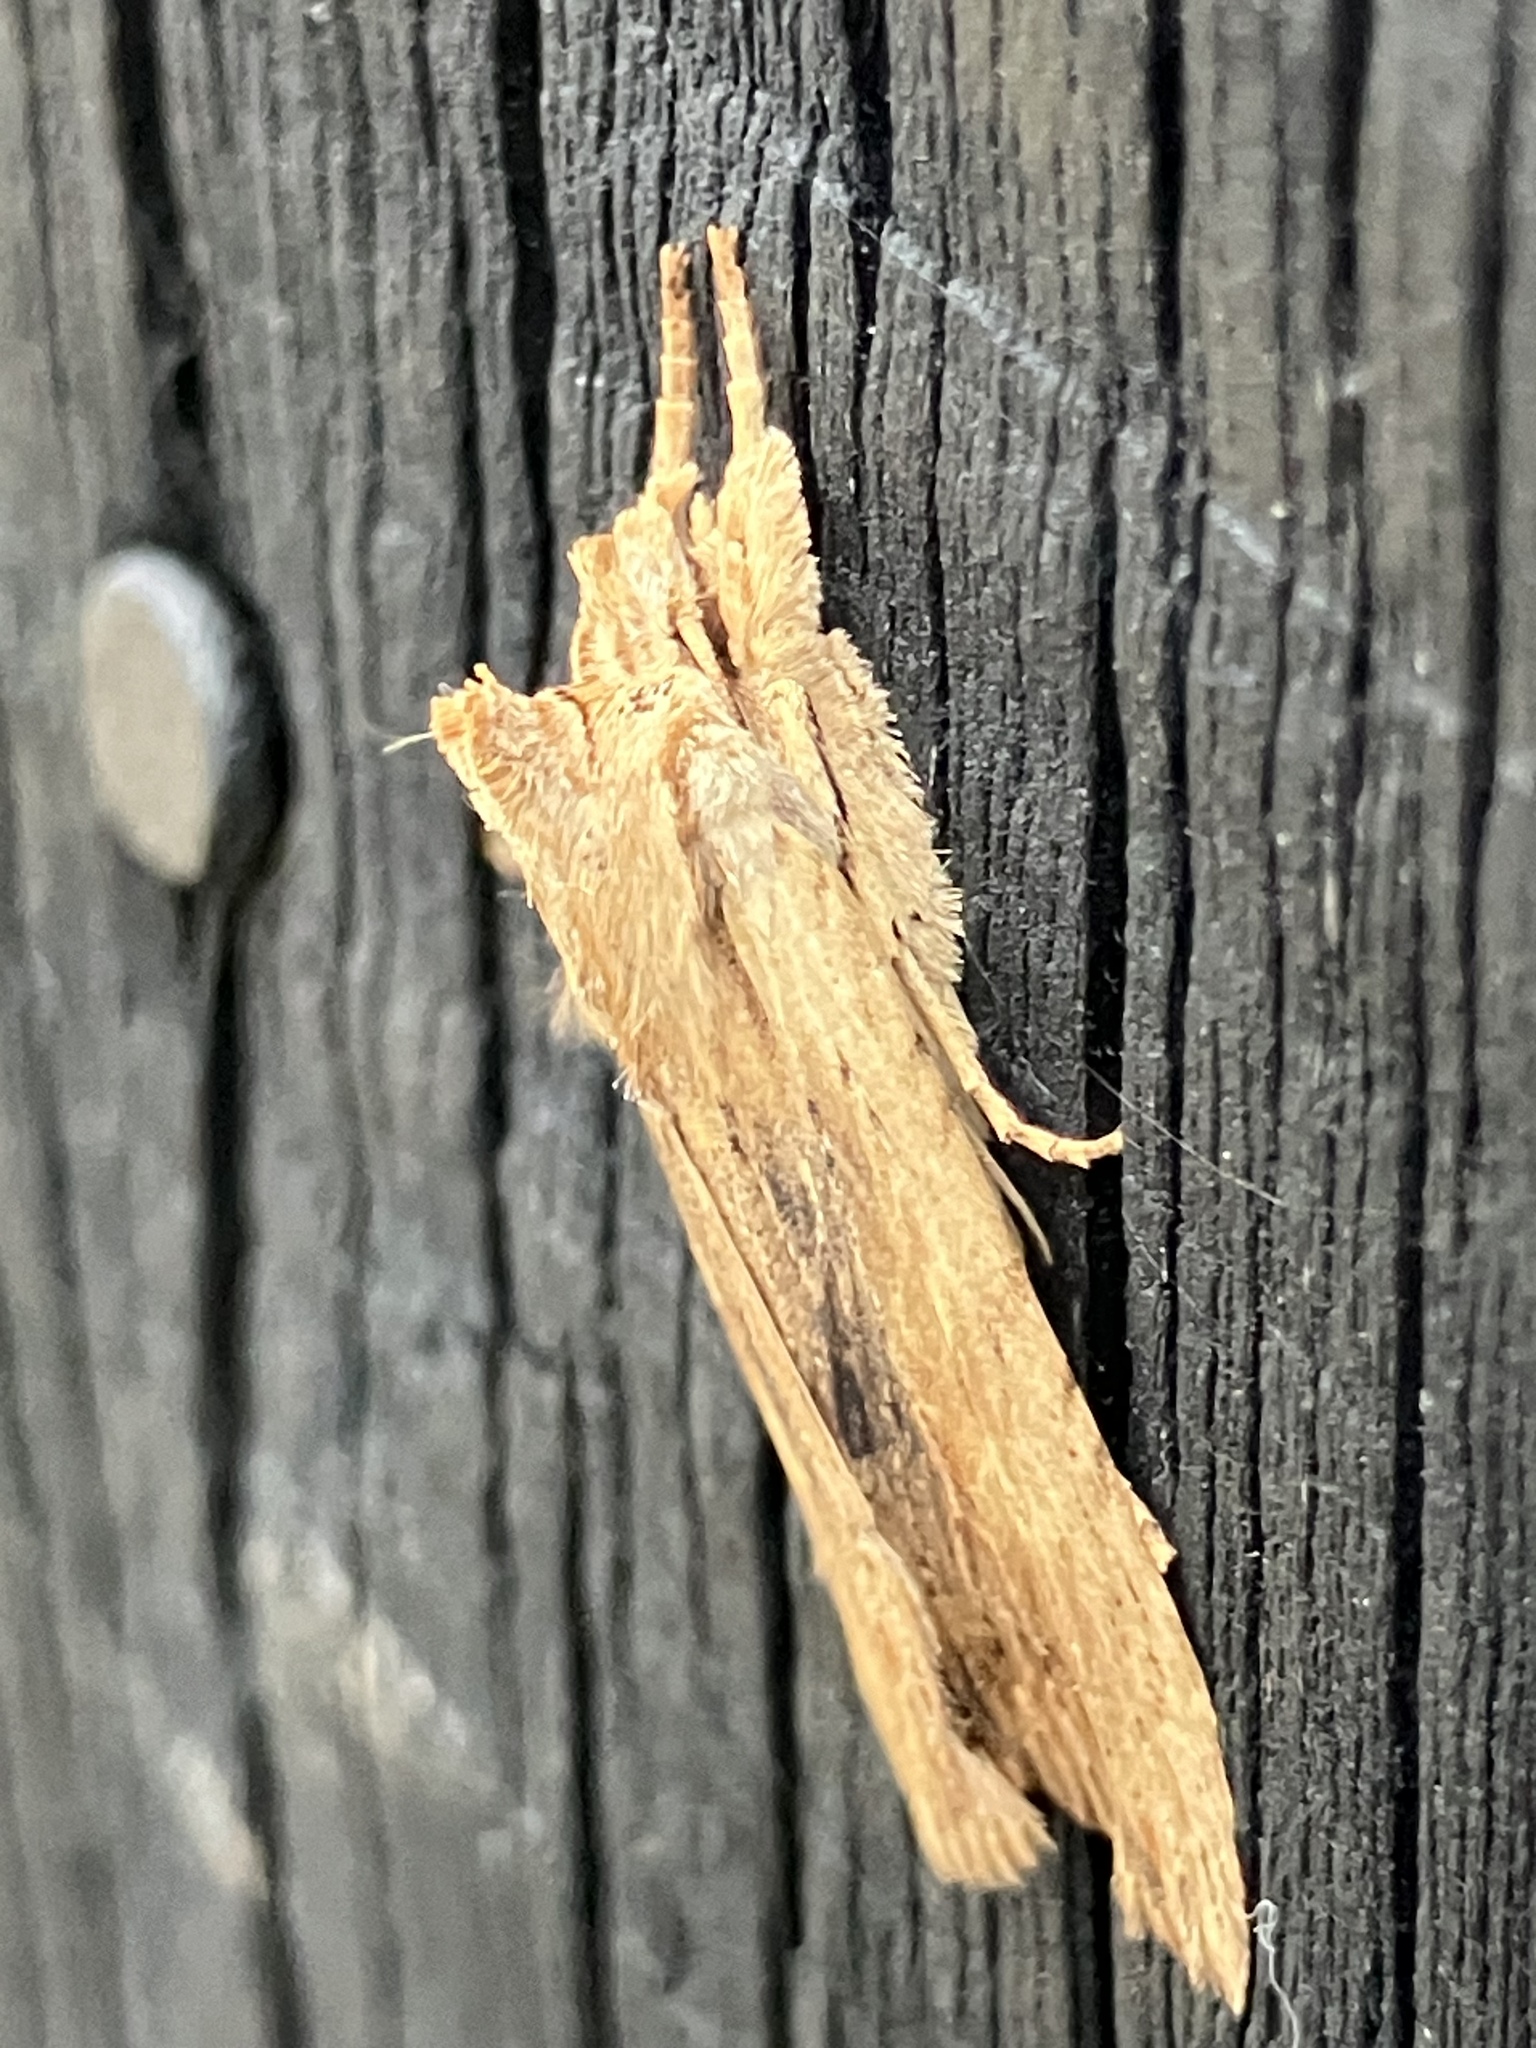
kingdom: Animalia
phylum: Arthropoda
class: Insecta
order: Lepidoptera
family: Noctuidae
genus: Lithophane
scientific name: Lithophane socia
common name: Pale pinion
